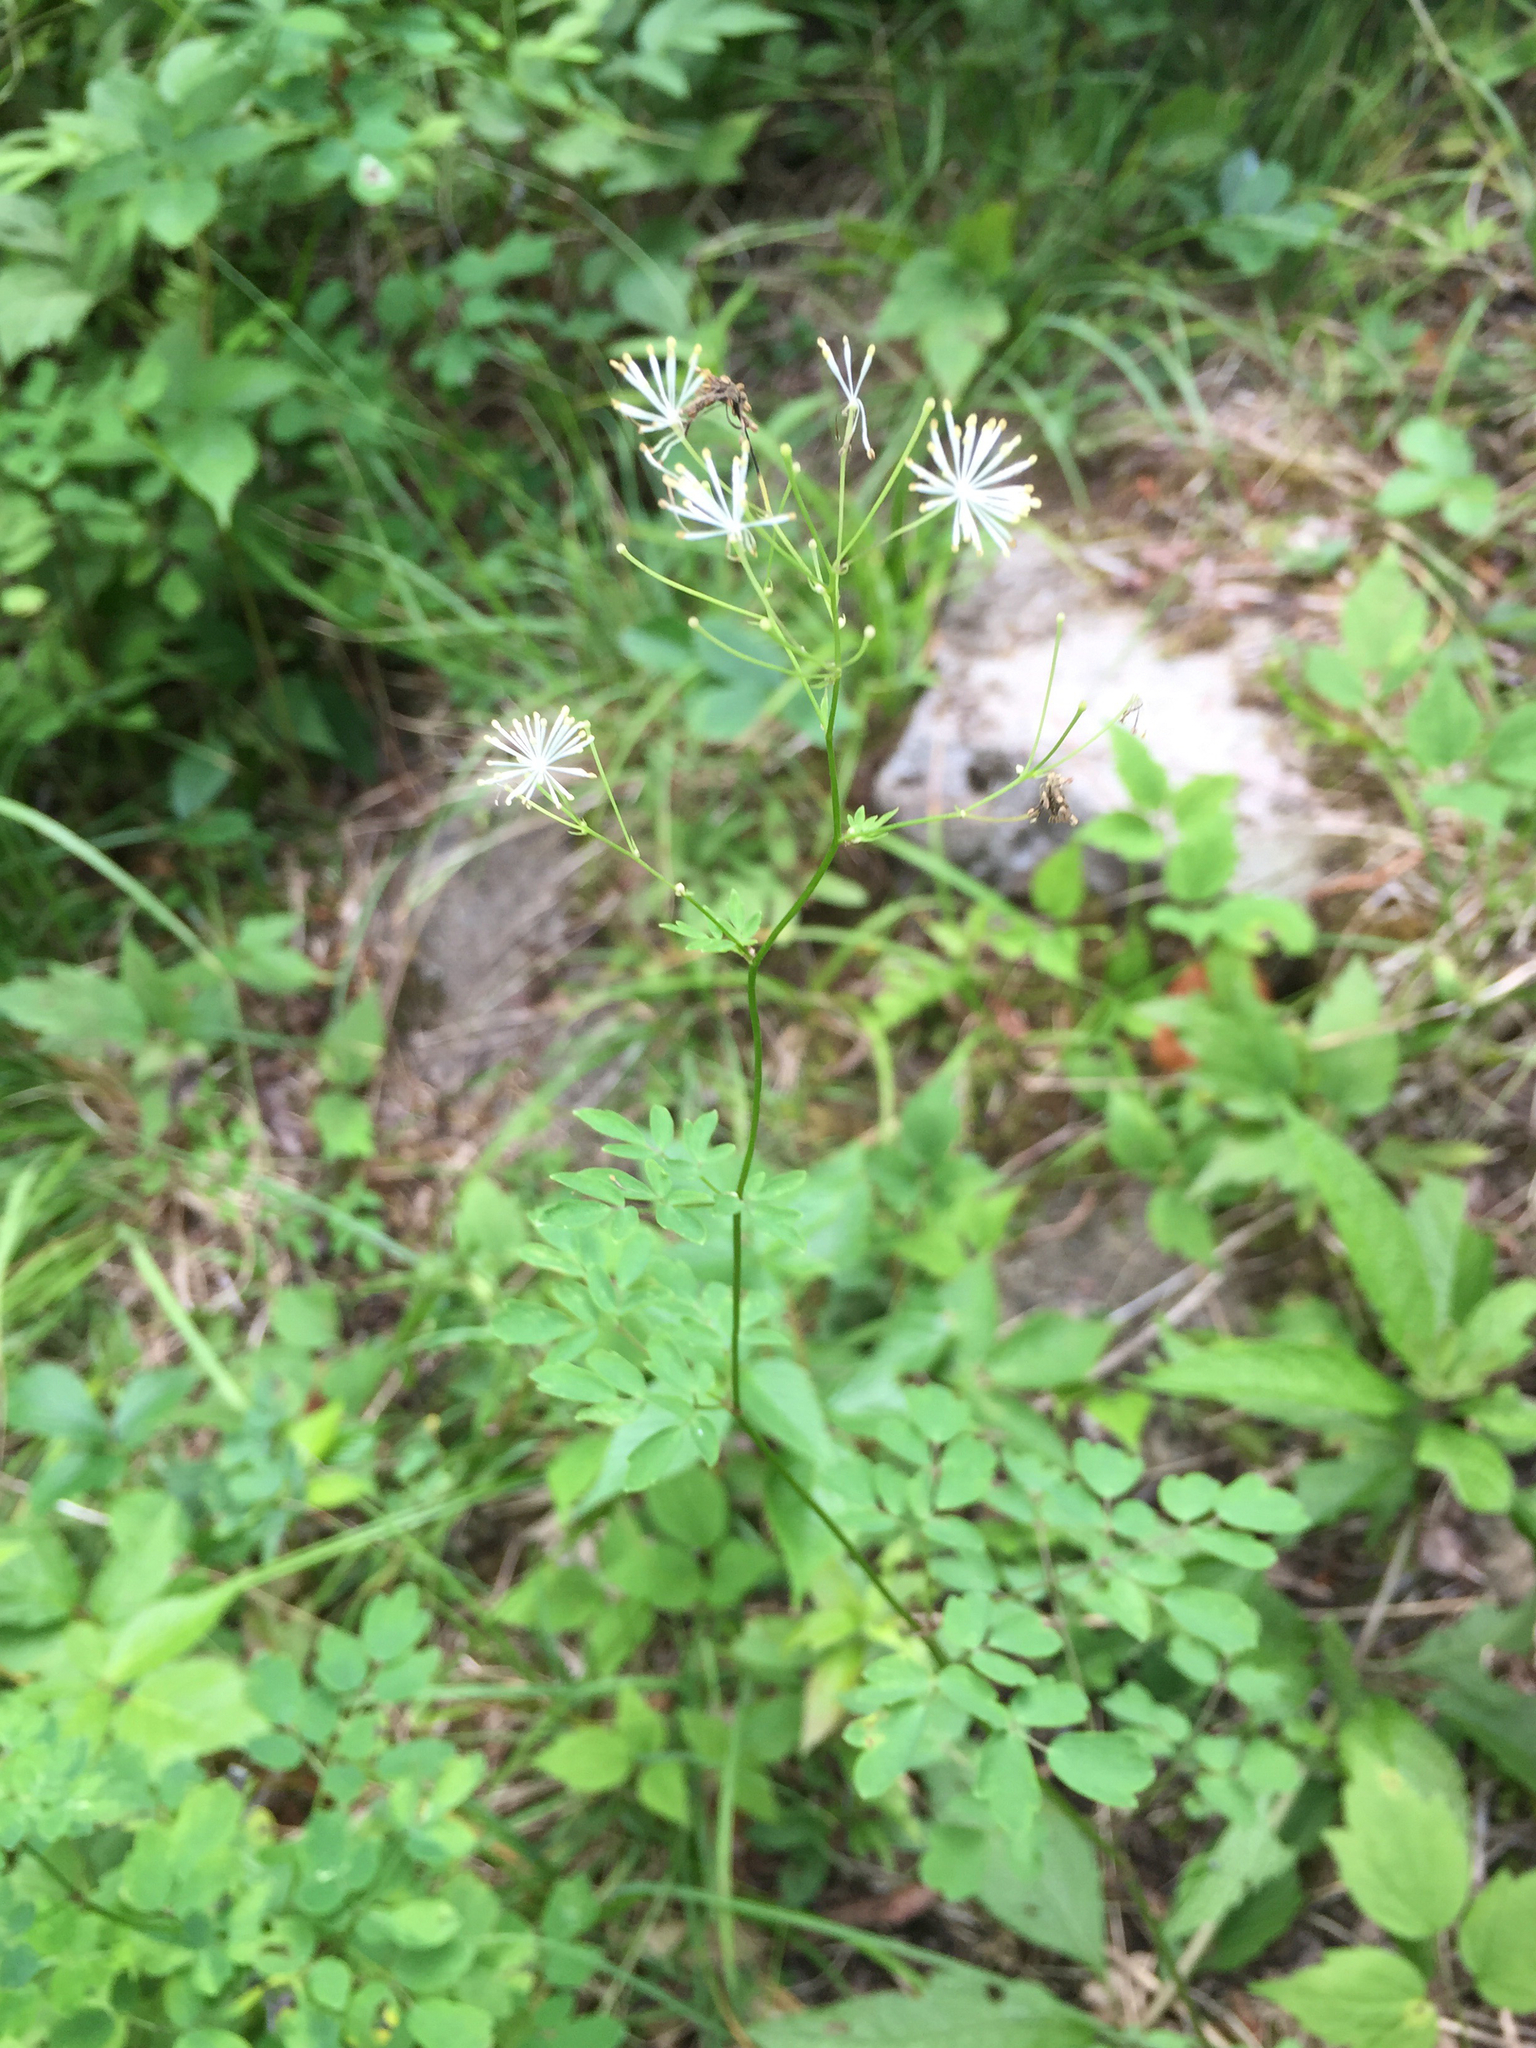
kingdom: Plantae
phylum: Tracheophyta
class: Magnoliopsida
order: Ranunculales
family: Ranunculaceae
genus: Thalictrum
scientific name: Thalictrum pubescens
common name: King-of-the-meadow
